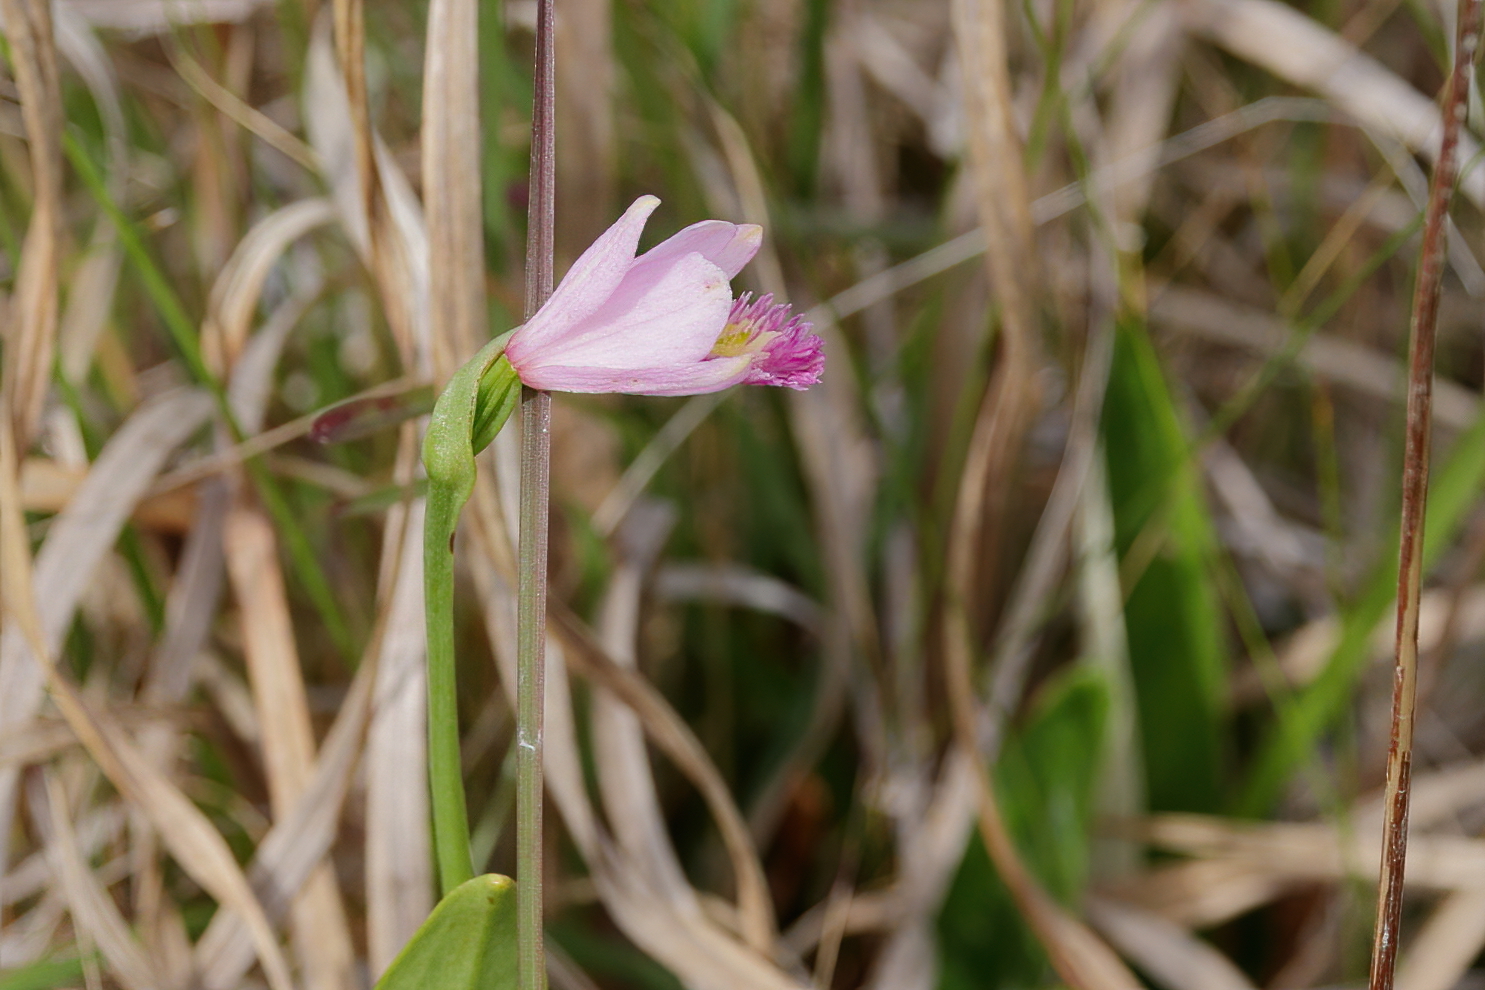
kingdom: Plantae
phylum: Tracheophyta
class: Liliopsida
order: Asparagales
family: Orchidaceae
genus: Pogonia
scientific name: Pogonia ophioglossoides
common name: Rose pogonia
